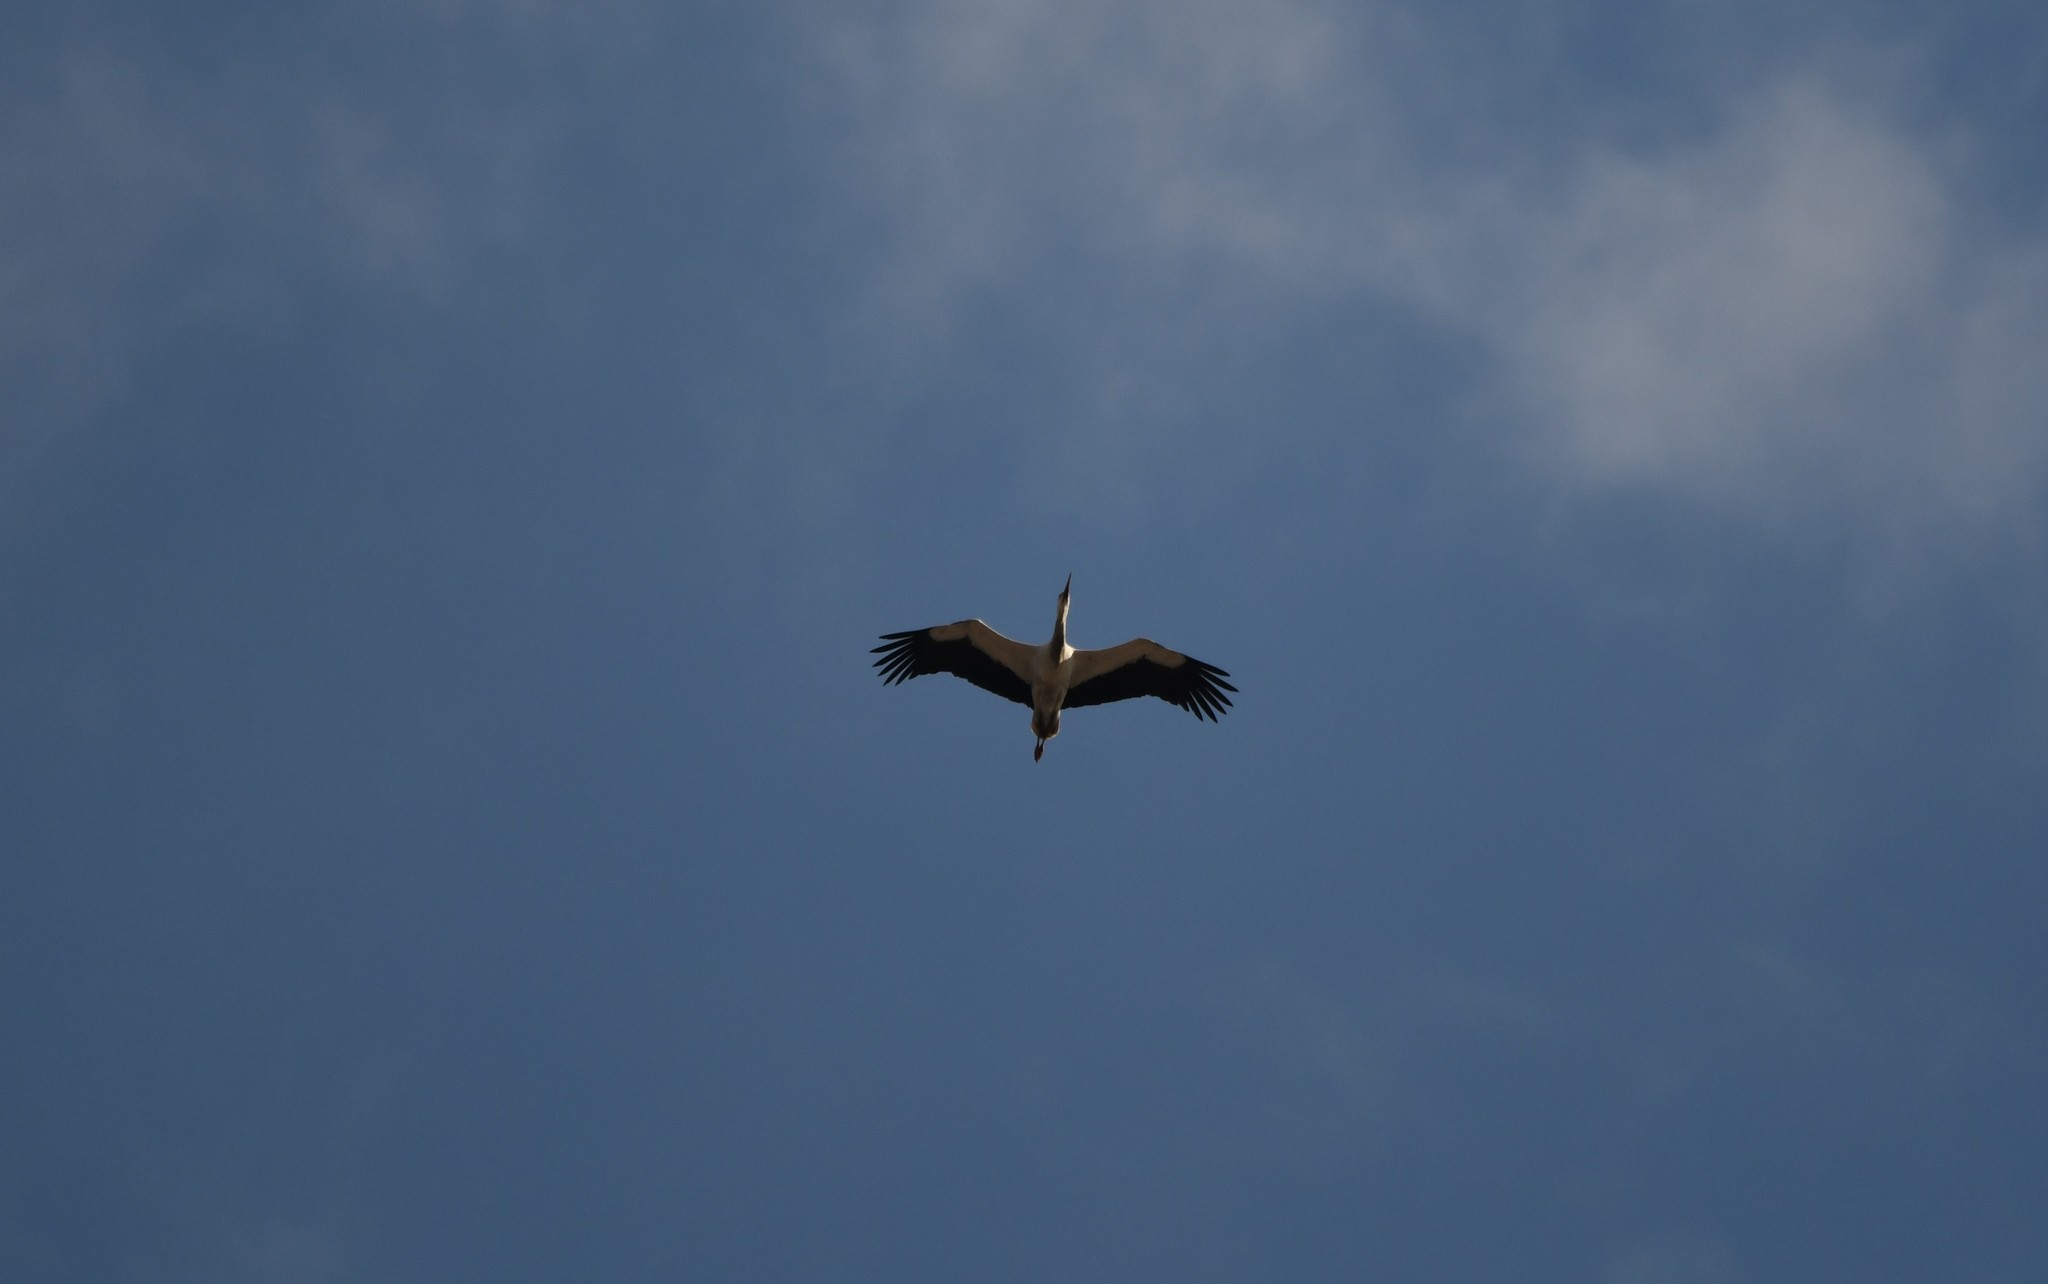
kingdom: Animalia
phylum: Chordata
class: Aves
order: Ciconiiformes
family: Ciconiidae
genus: Ciconia
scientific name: Ciconia ciconia
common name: White stork
